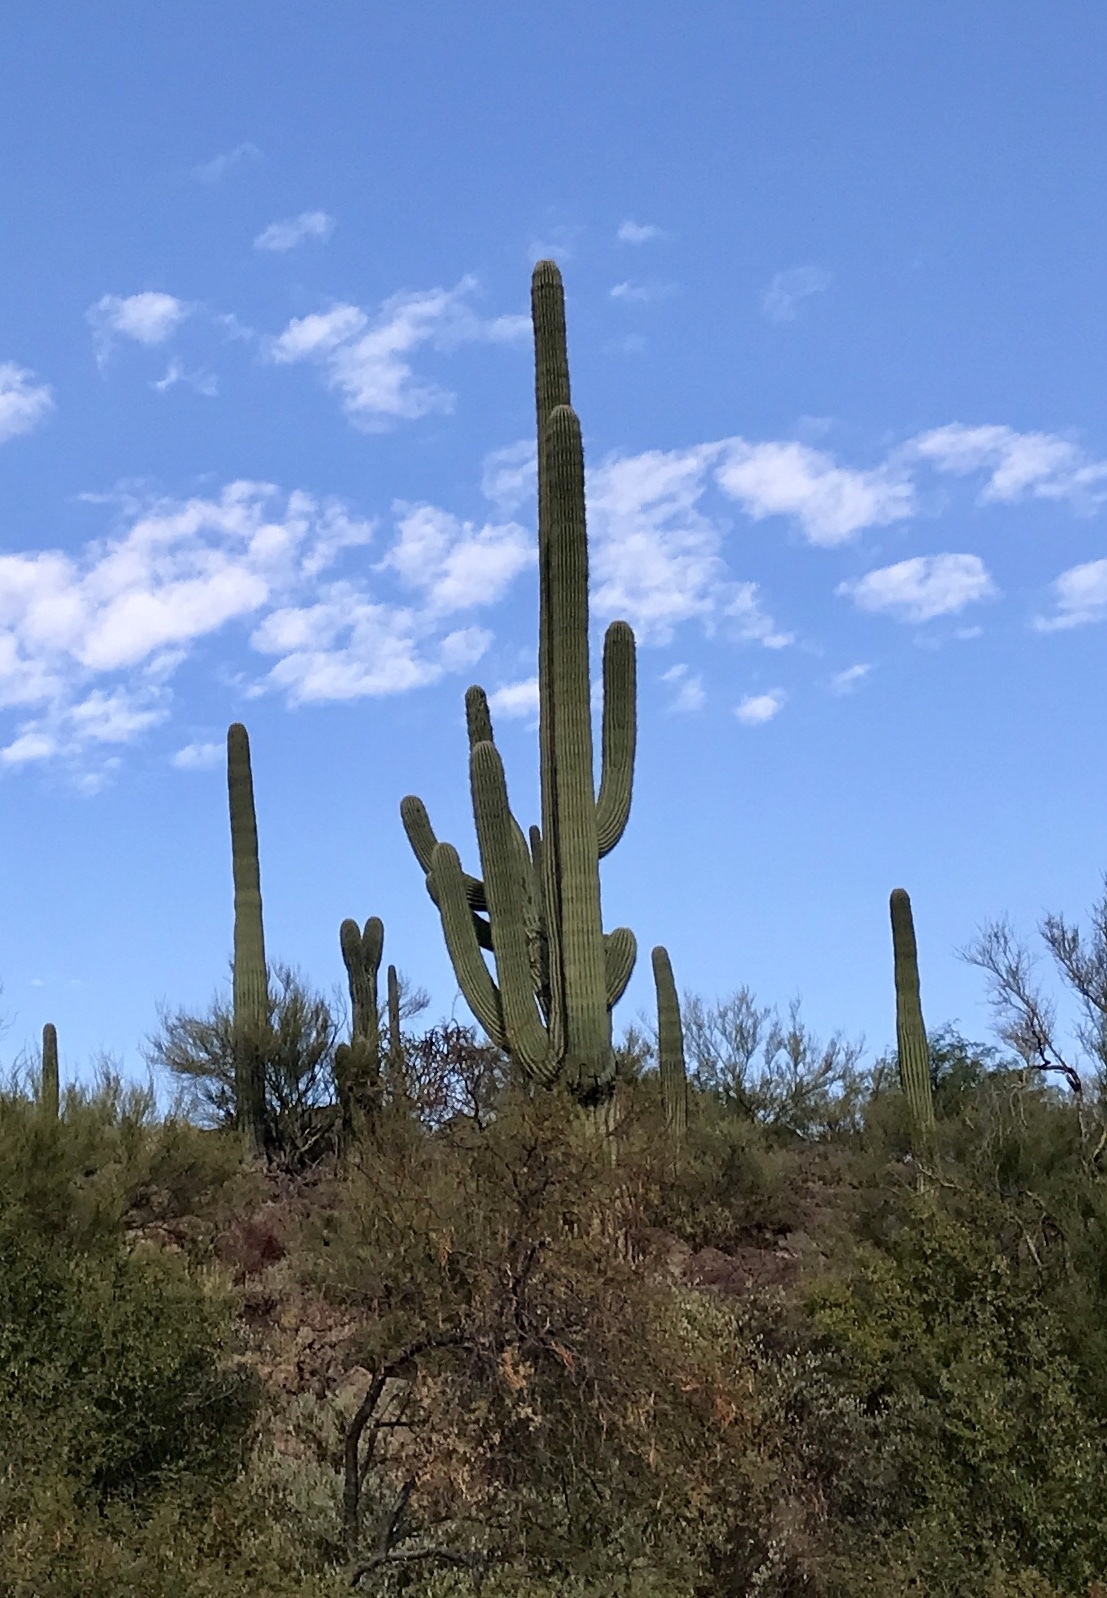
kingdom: Plantae
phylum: Tracheophyta
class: Magnoliopsida
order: Caryophyllales
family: Cactaceae
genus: Carnegiea
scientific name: Carnegiea gigantea
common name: Saguaro
